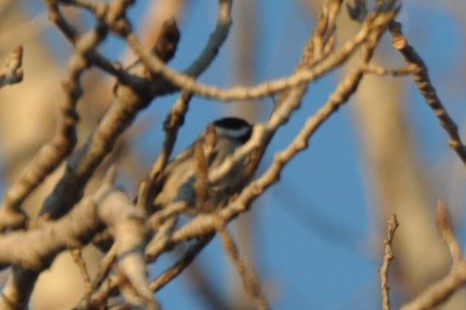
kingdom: Animalia
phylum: Chordata
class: Aves
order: Passeriformes
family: Paridae
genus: Poecile
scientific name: Poecile carolinensis
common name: Carolina chickadee
